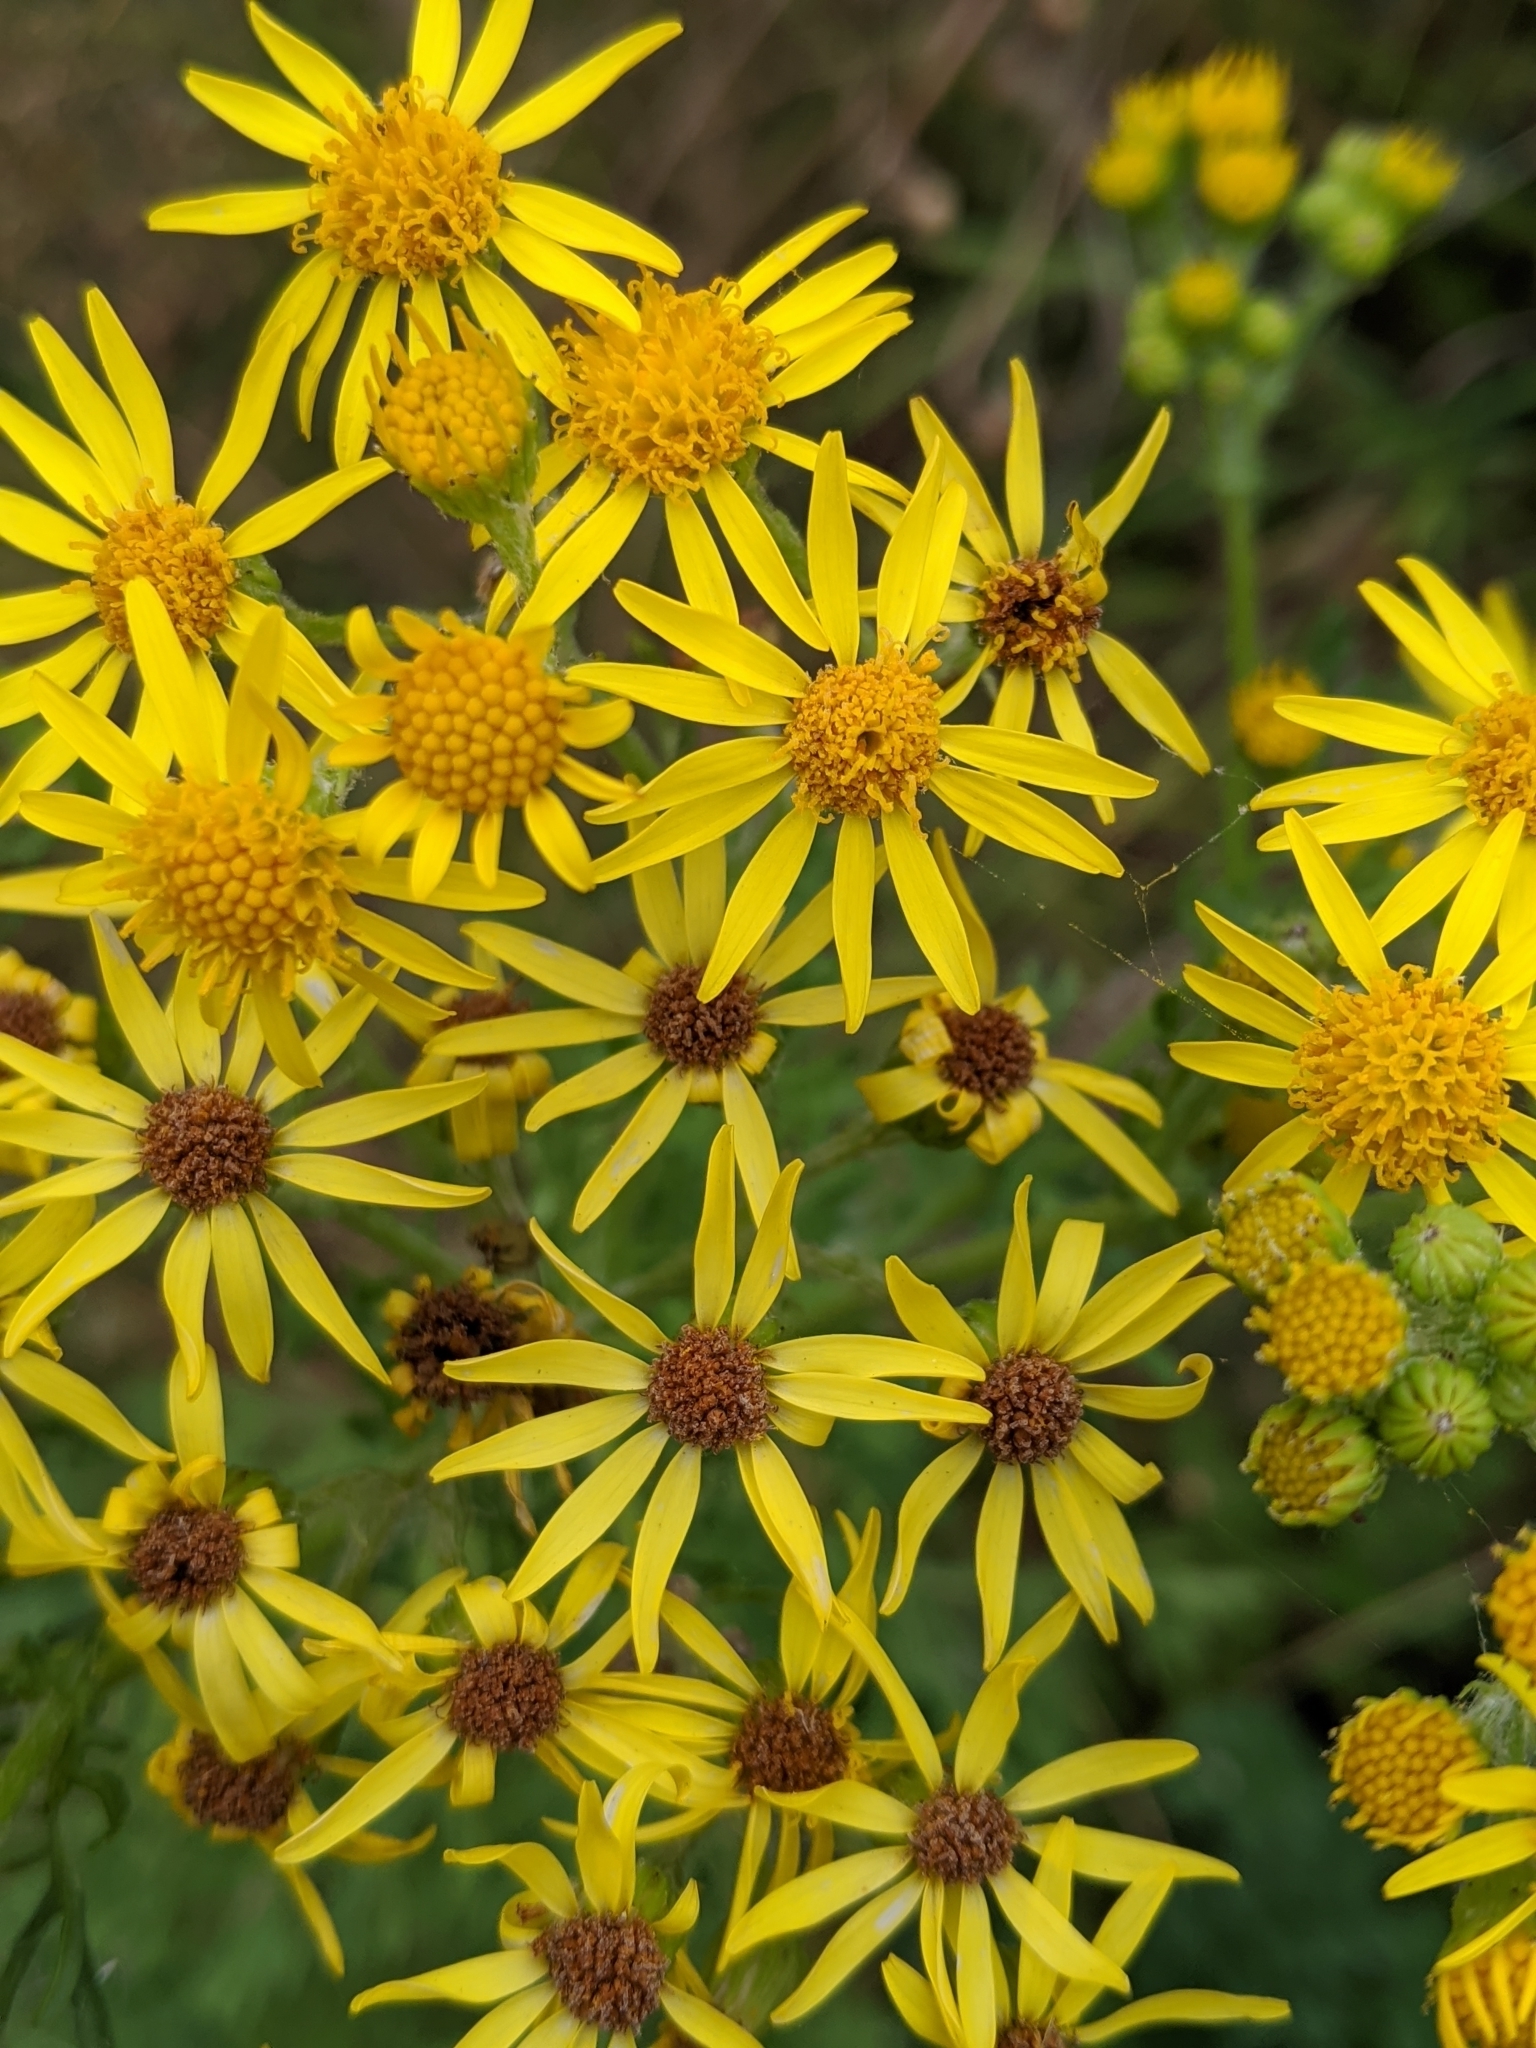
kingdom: Plantae
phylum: Tracheophyta
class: Magnoliopsida
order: Asterales
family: Asteraceae
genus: Jacobaea
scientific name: Jacobaea vulgaris
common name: Stinking willie
